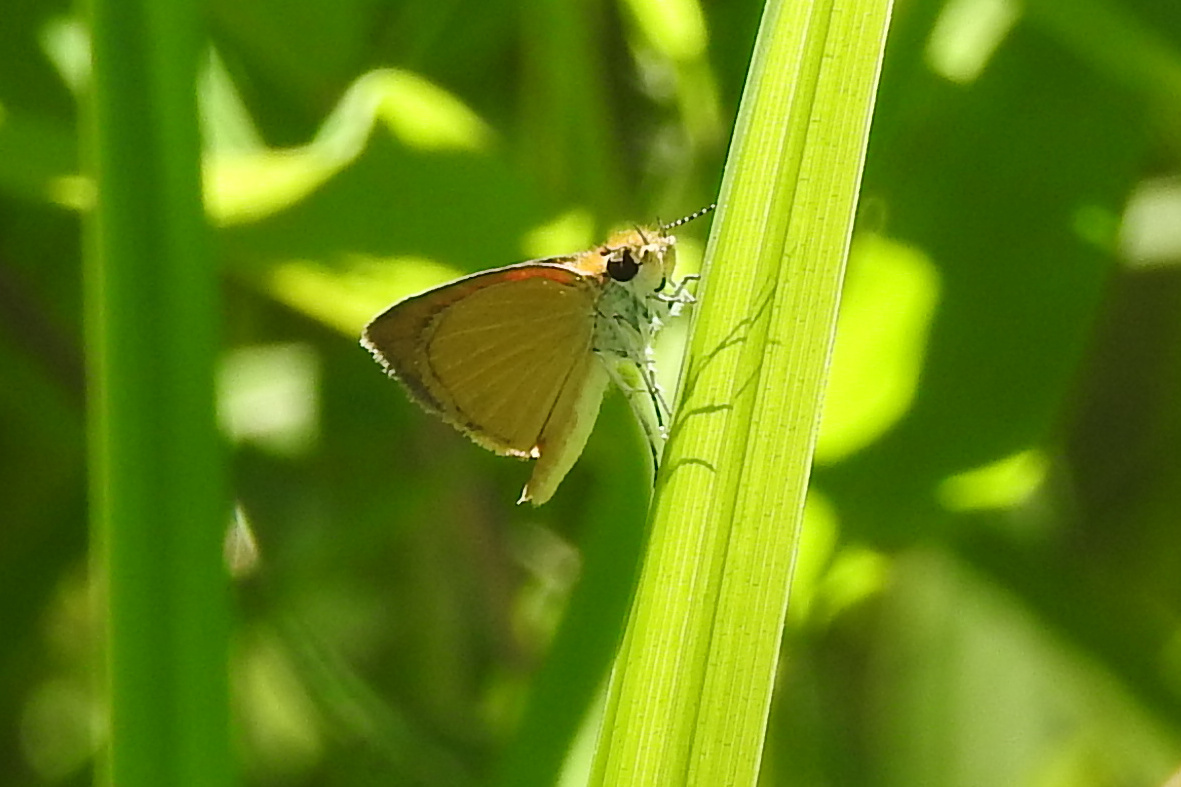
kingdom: Animalia
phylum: Arthropoda
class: Insecta
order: Lepidoptera
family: Hesperiidae
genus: Ancyloxypha
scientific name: Ancyloxypha numitor
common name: Least skipper
